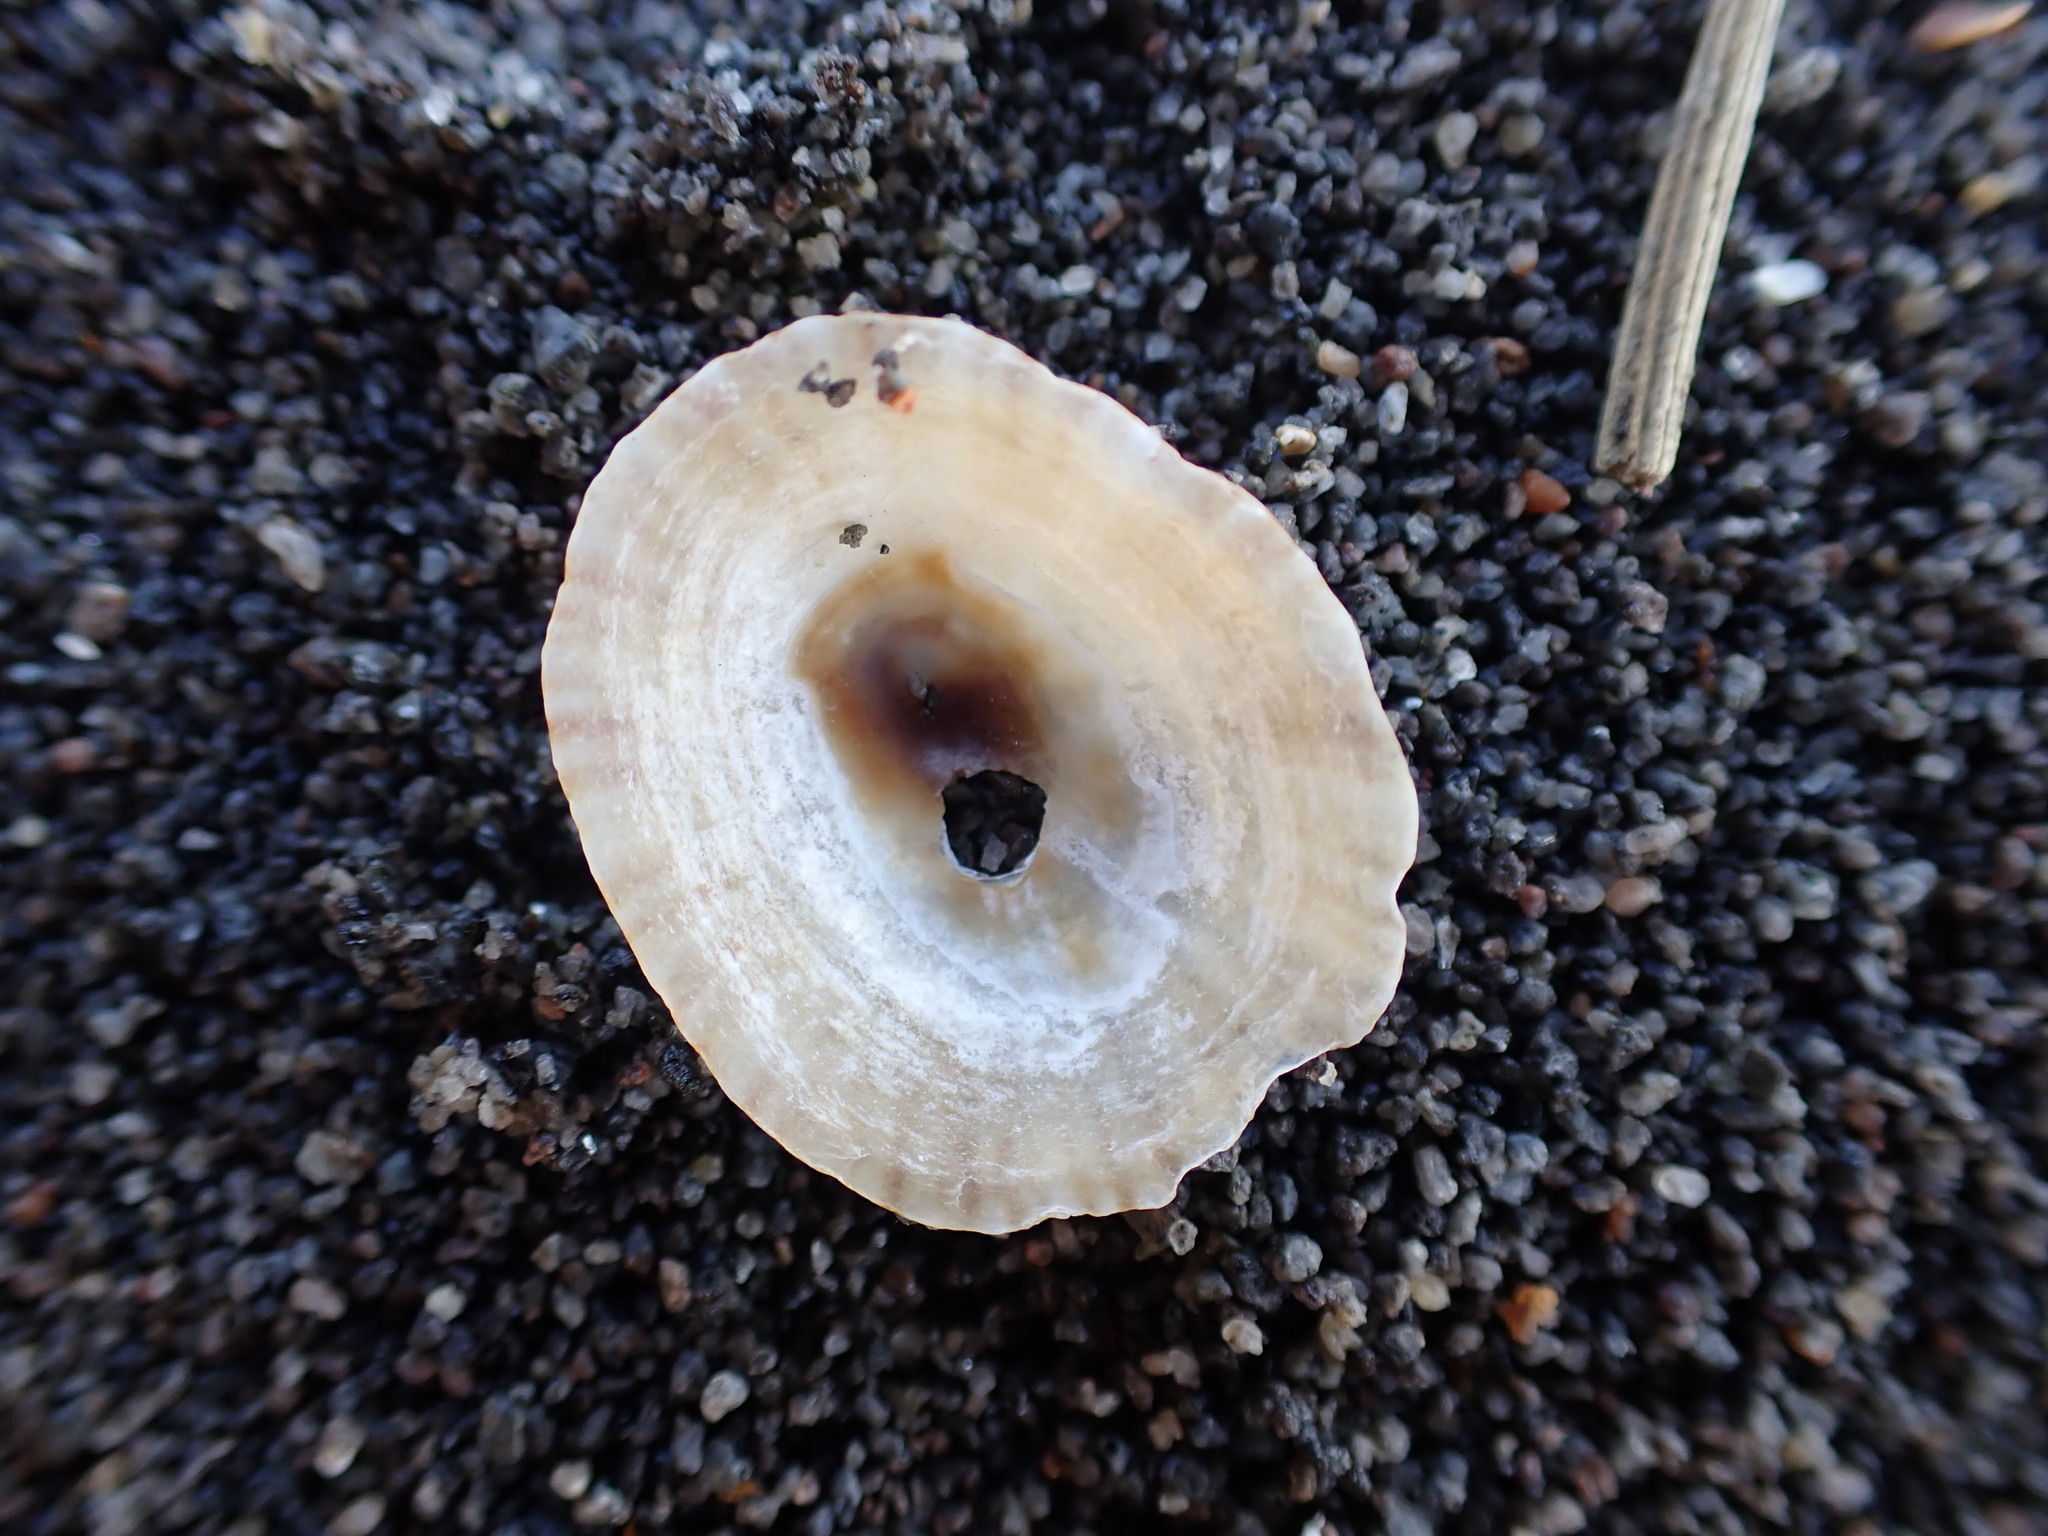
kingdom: Animalia
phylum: Mollusca
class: Gastropoda
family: Nacellidae
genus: Cellana
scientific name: Cellana stellifera
